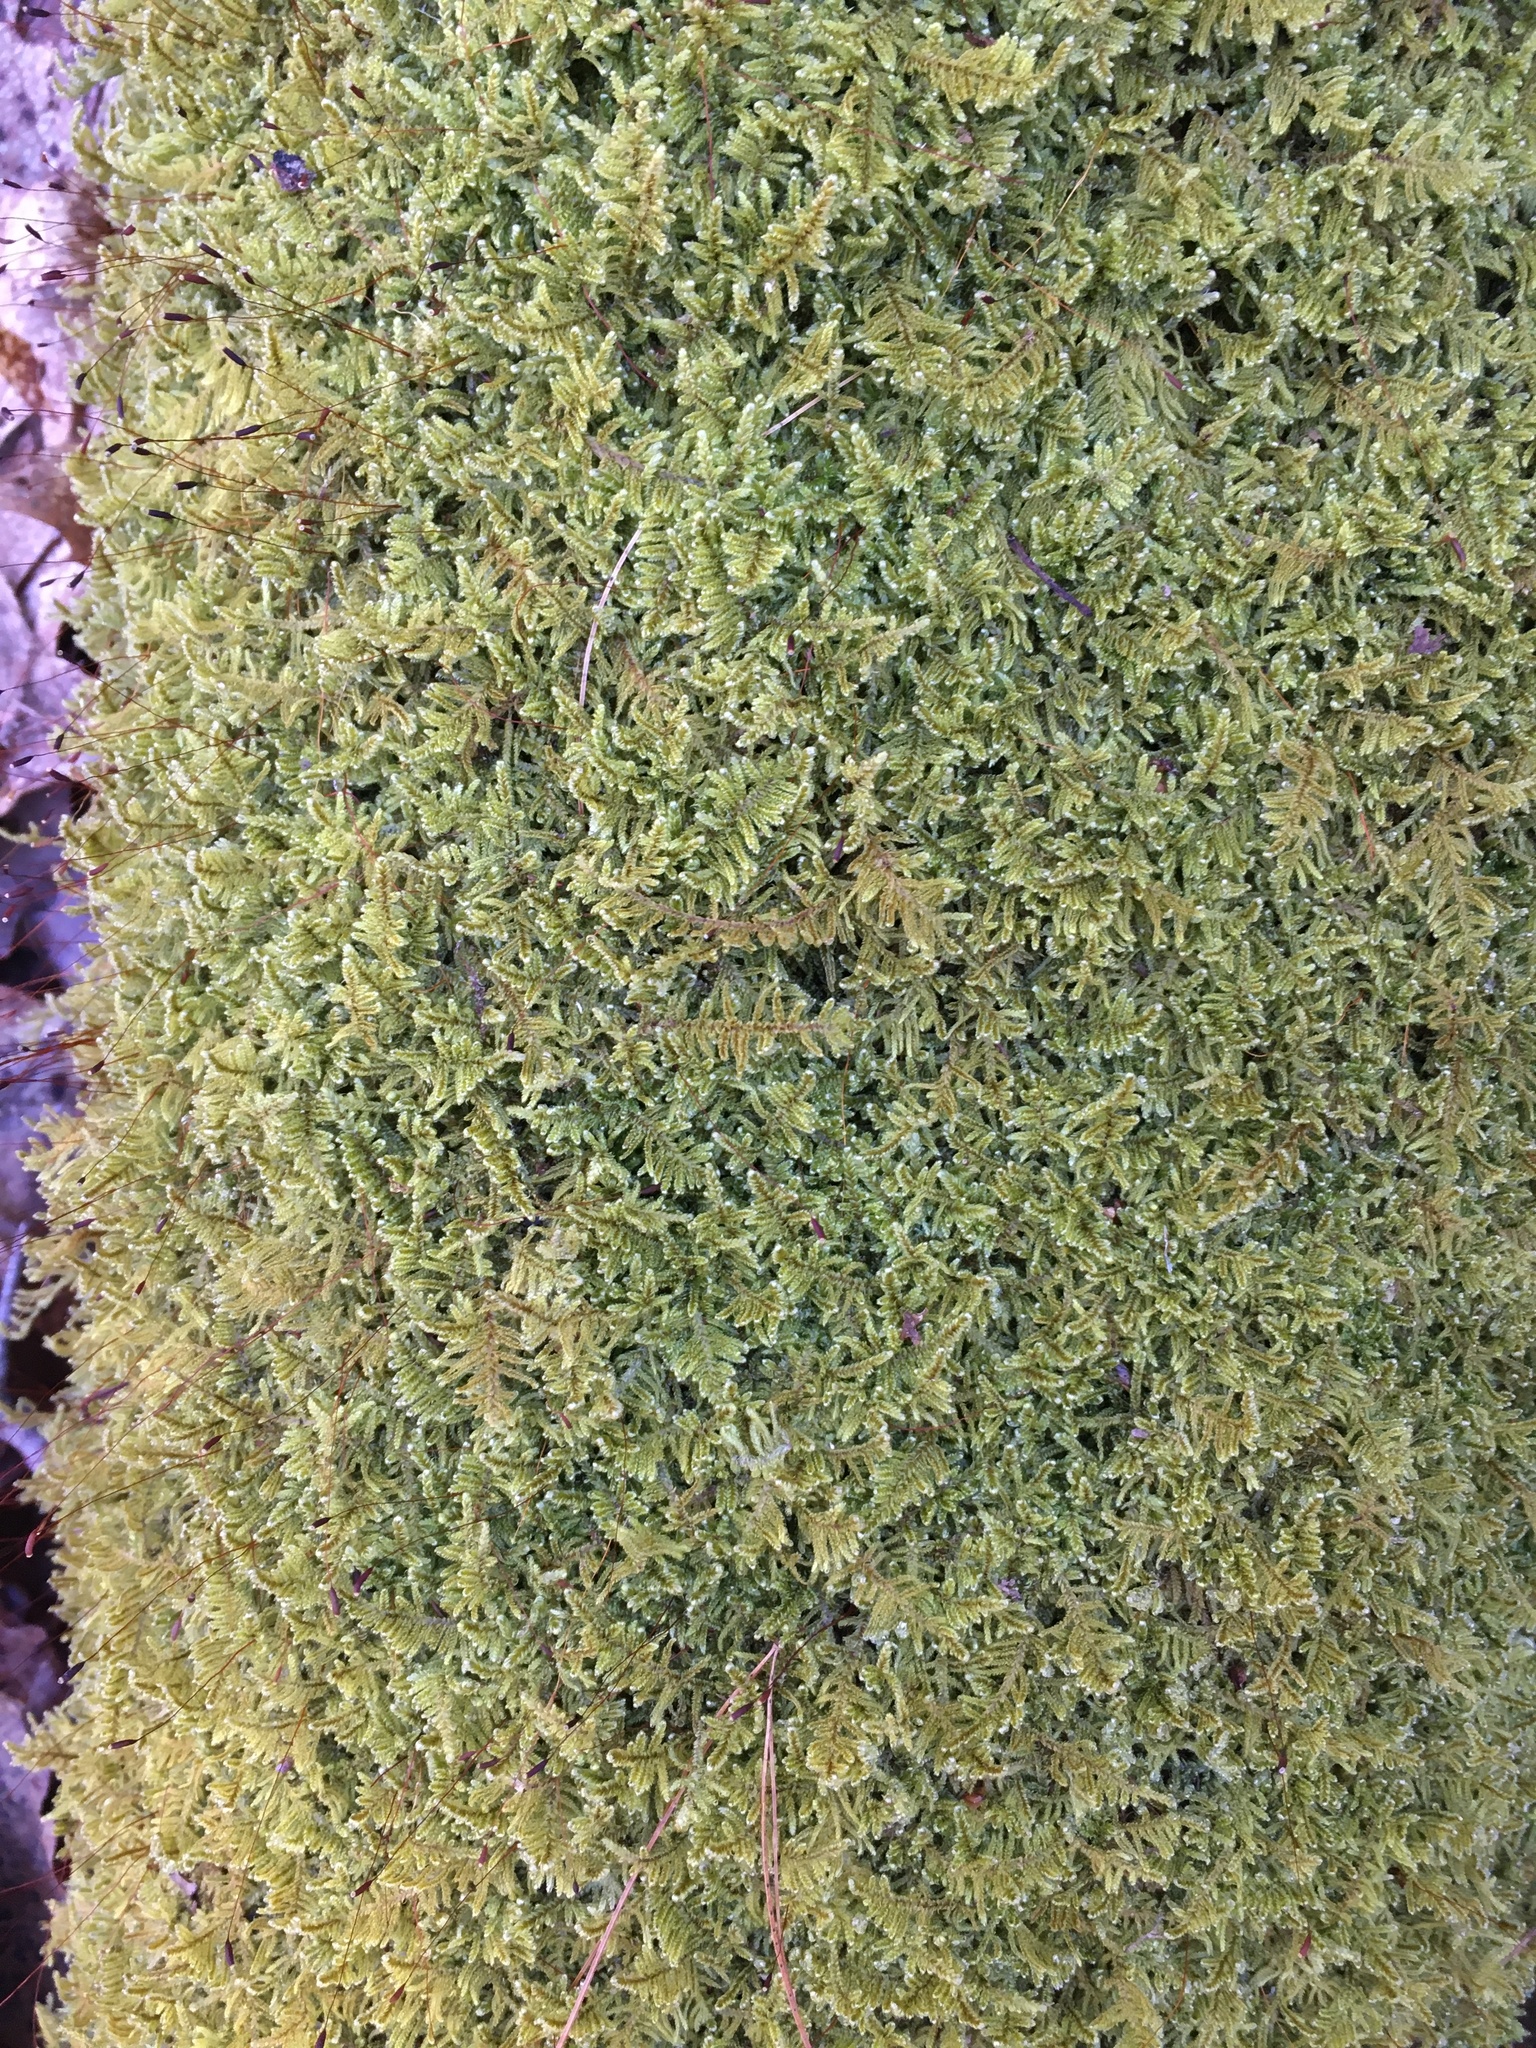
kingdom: Plantae
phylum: Bryophyta
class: Bryopsida
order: Hypnales
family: Callicladiaceae
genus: Callicladium
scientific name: Callicladium imponens
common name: Brocade moss
